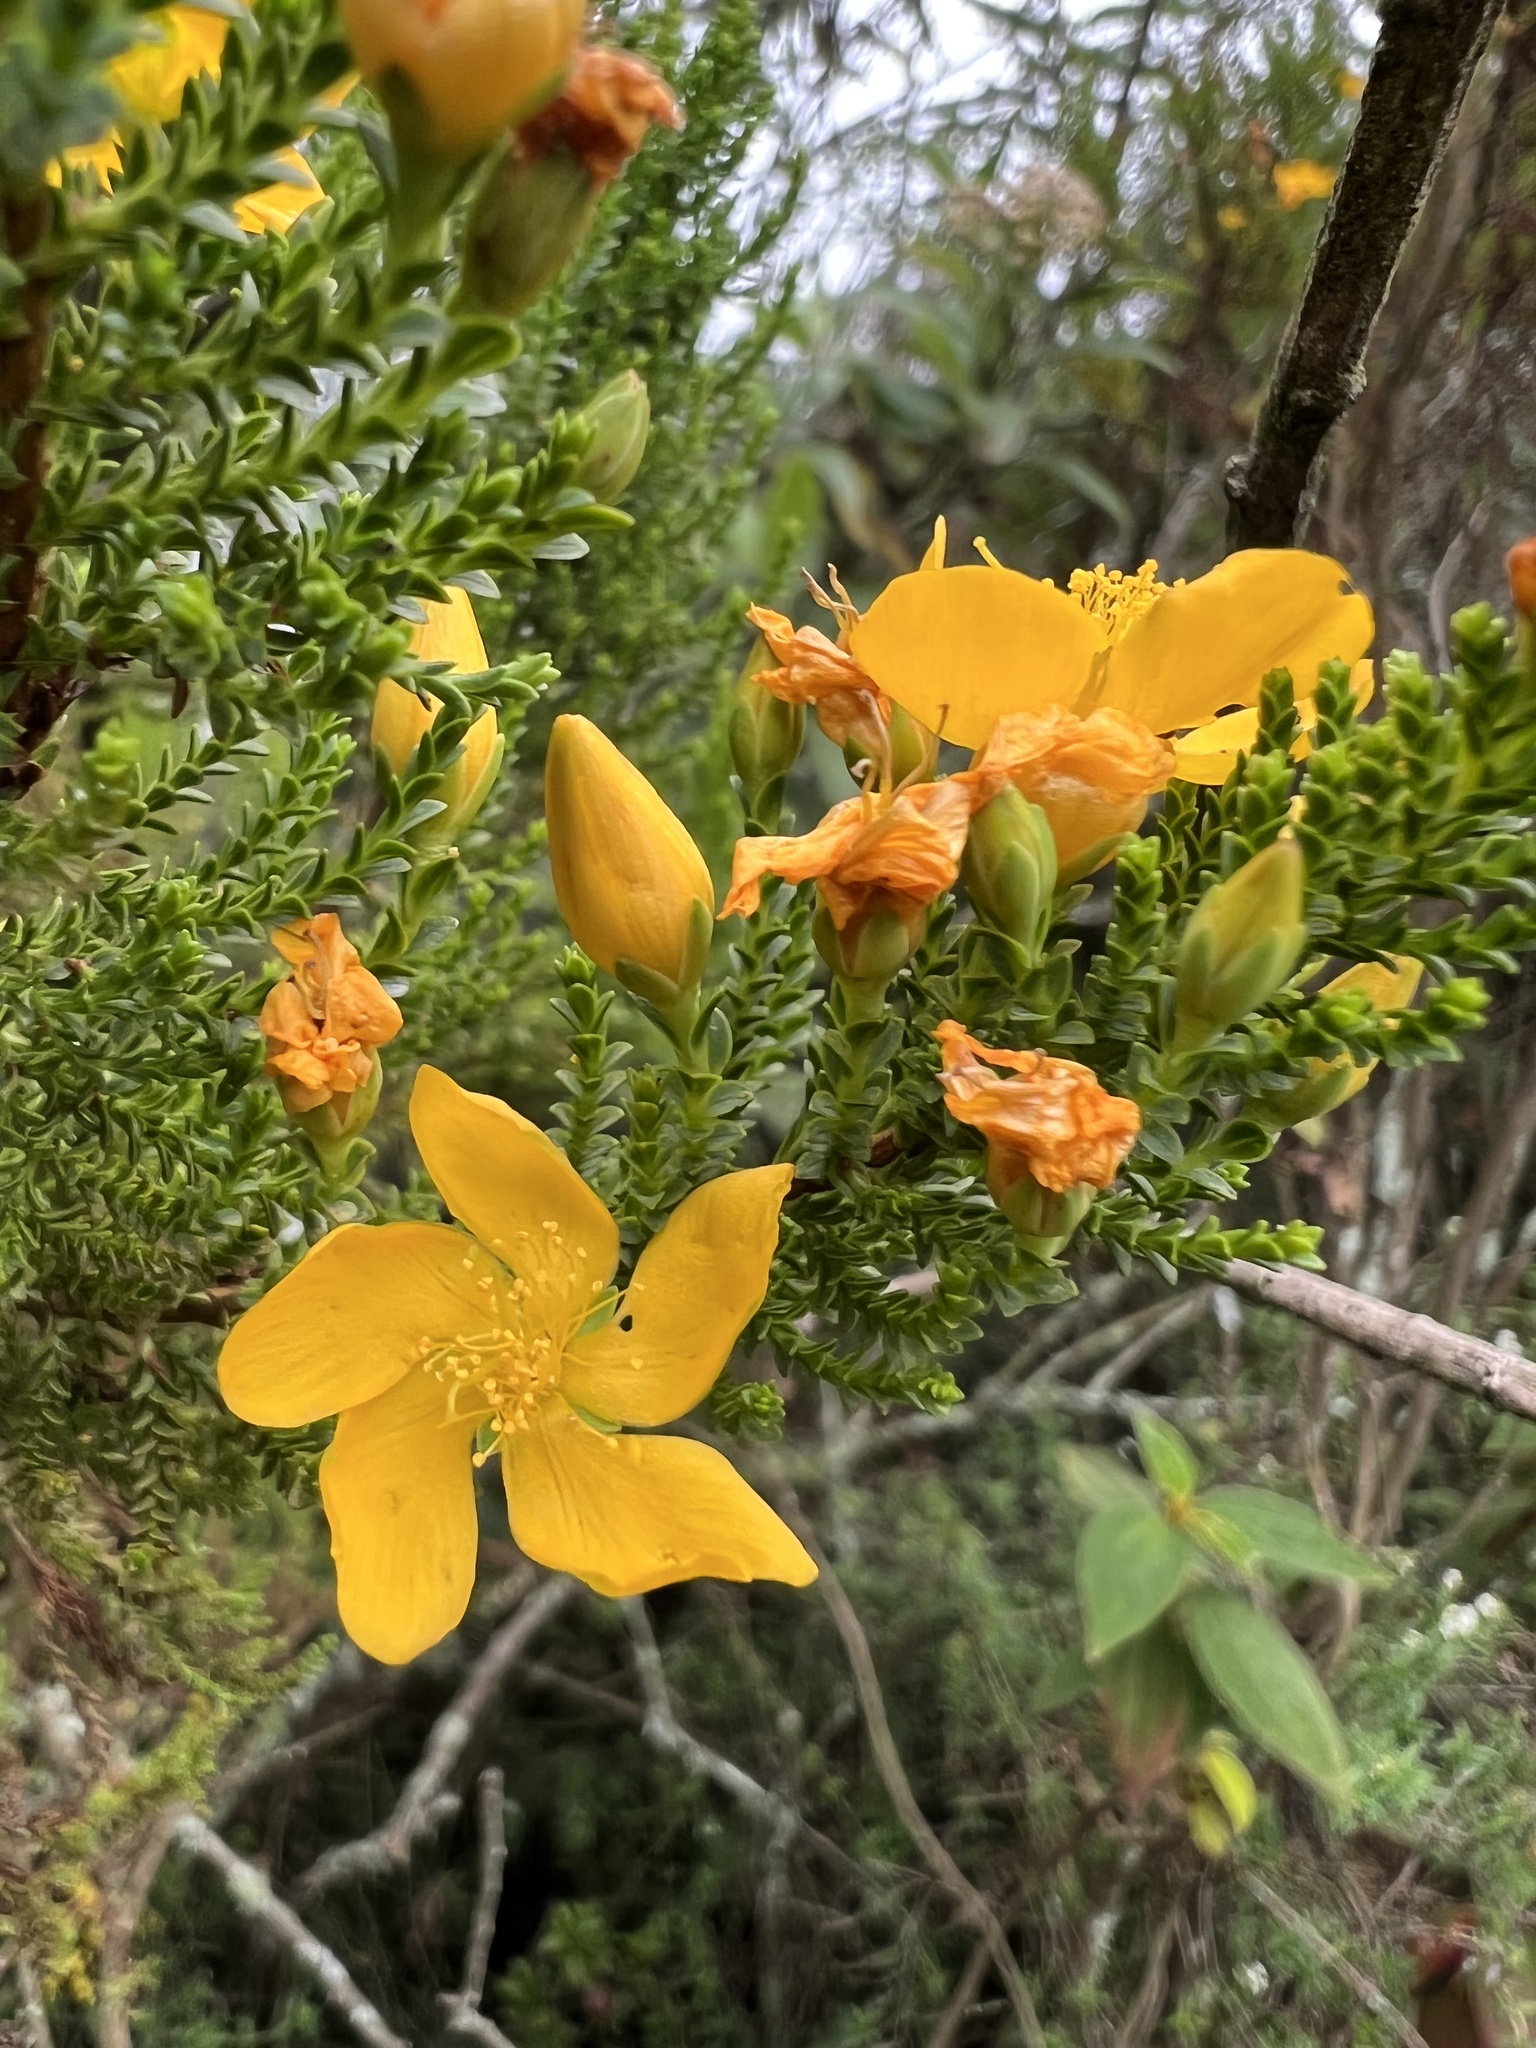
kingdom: Plantae
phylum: Tracheophyta
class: Magnoliopsida
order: Malpighiales
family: Hypericaceae
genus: Hypericum
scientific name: Hypericum goyanesii
